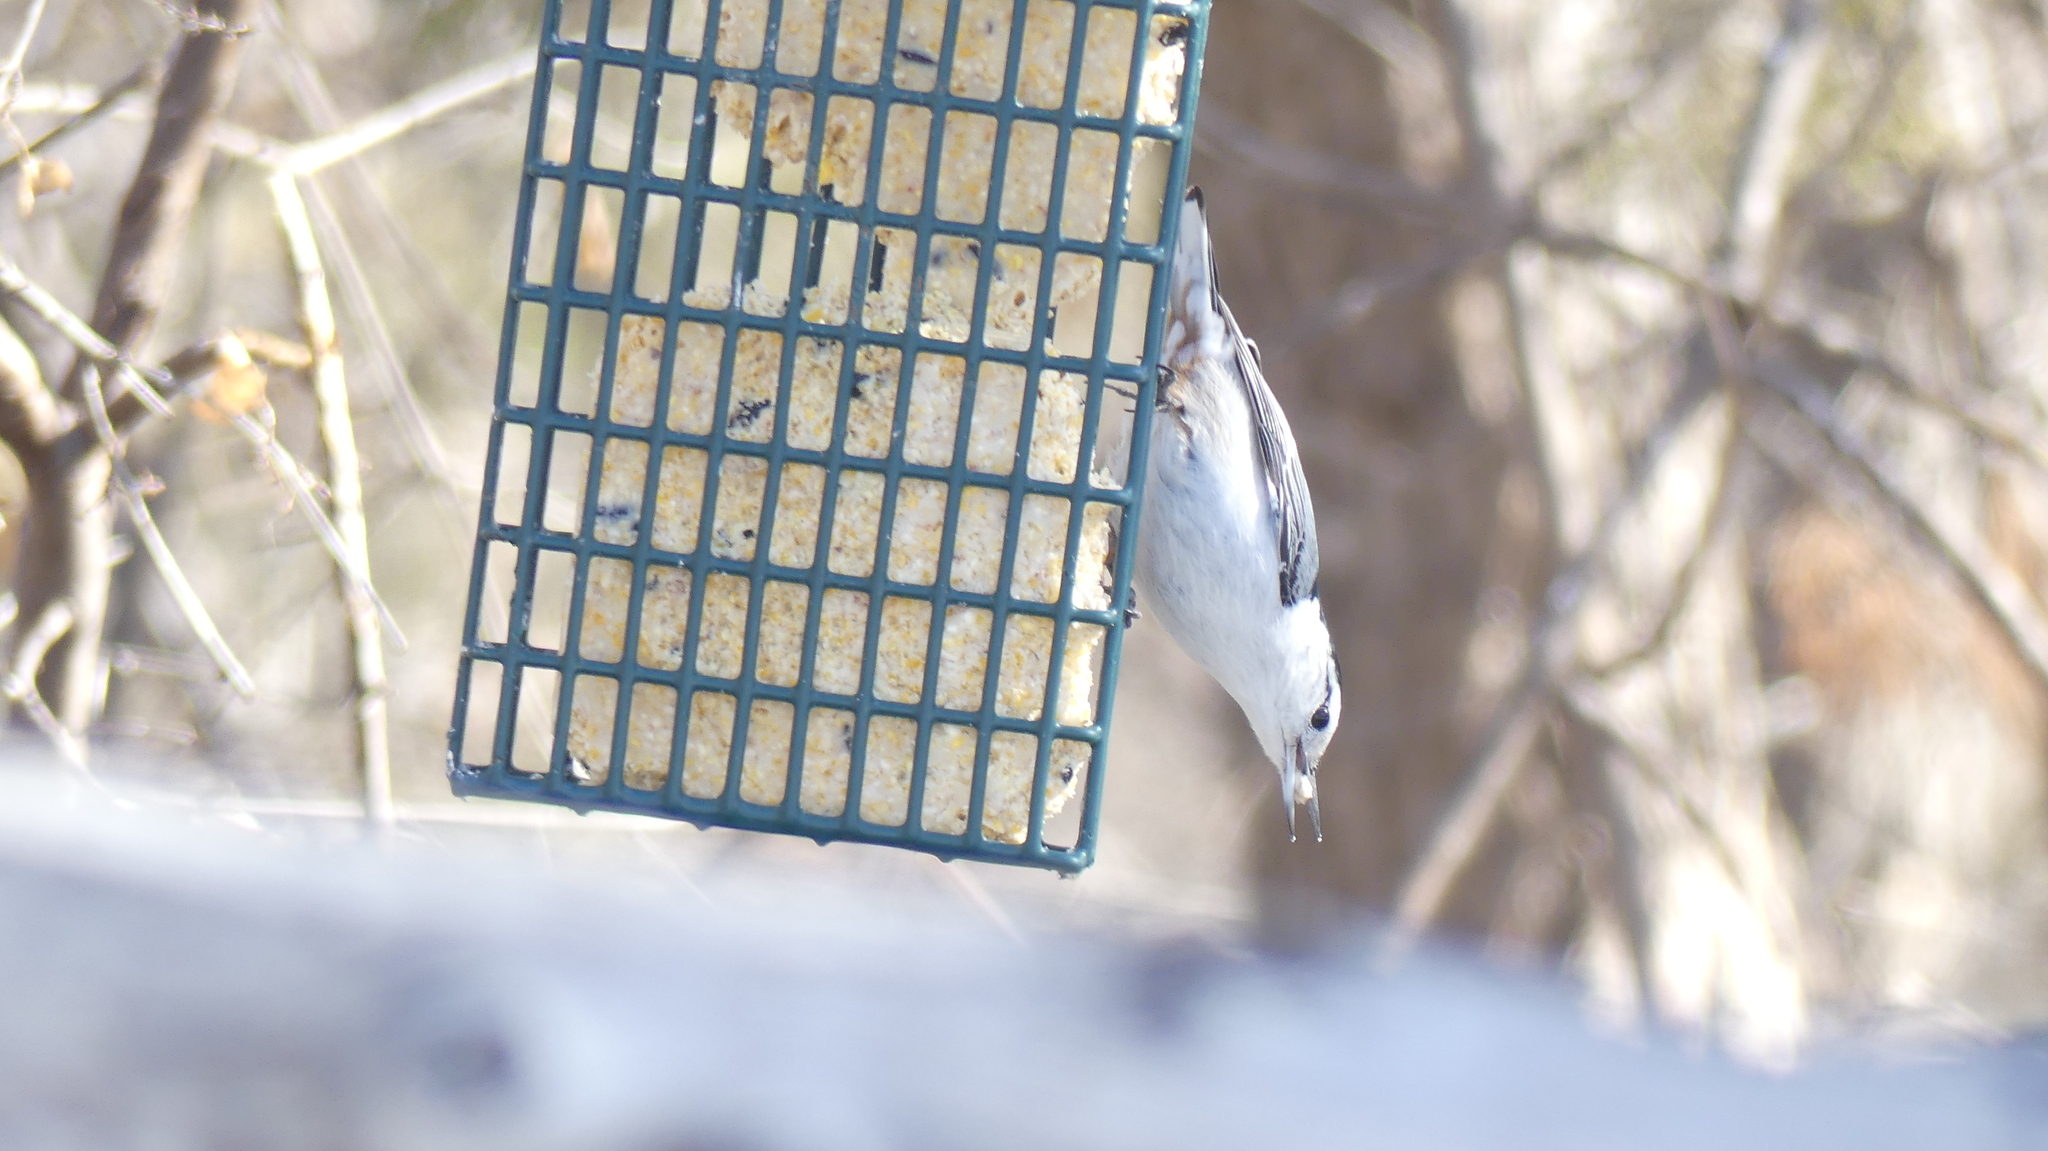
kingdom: Animalia
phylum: Chordata
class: Aves
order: Passeriformes
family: Sittidae
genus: Sitta
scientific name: Sitta carolinensis
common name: White-breasted nuthatch
